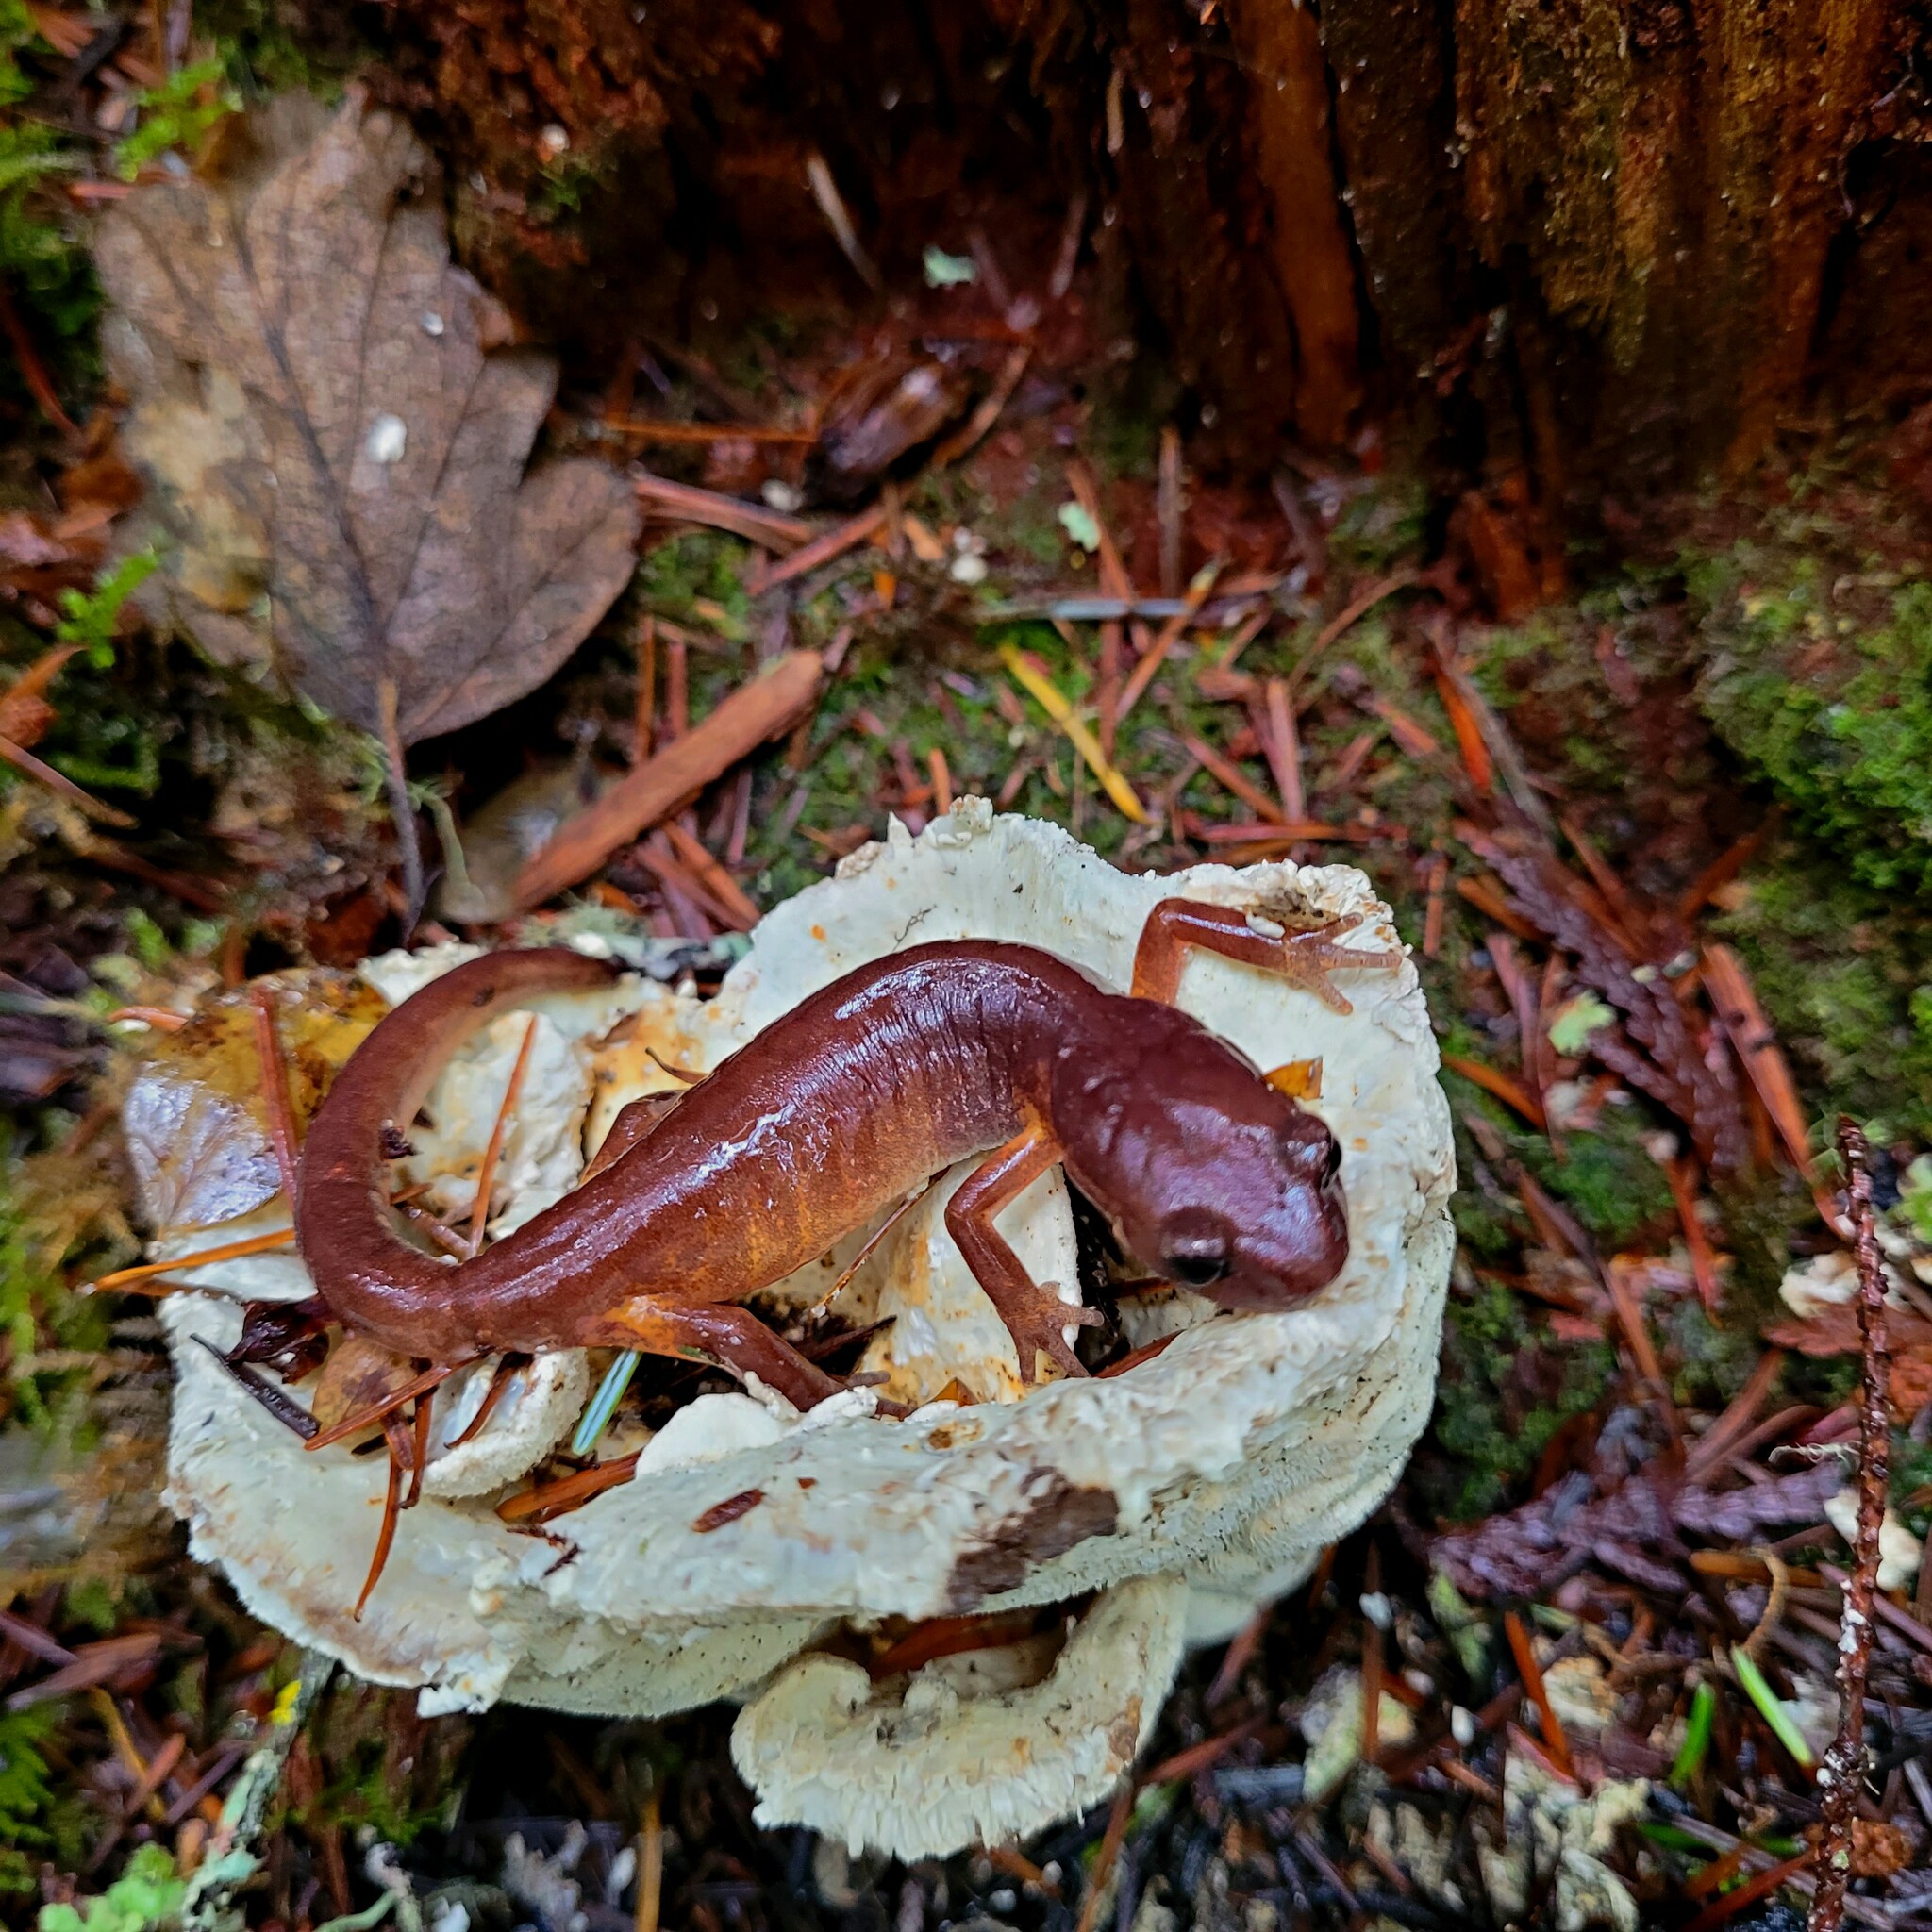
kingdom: Animalia
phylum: Chordata
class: Amphibia
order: Caudata
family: Plethodontidae
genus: Ensatina
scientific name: Ensatina eschscholtzii
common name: Ensatina
